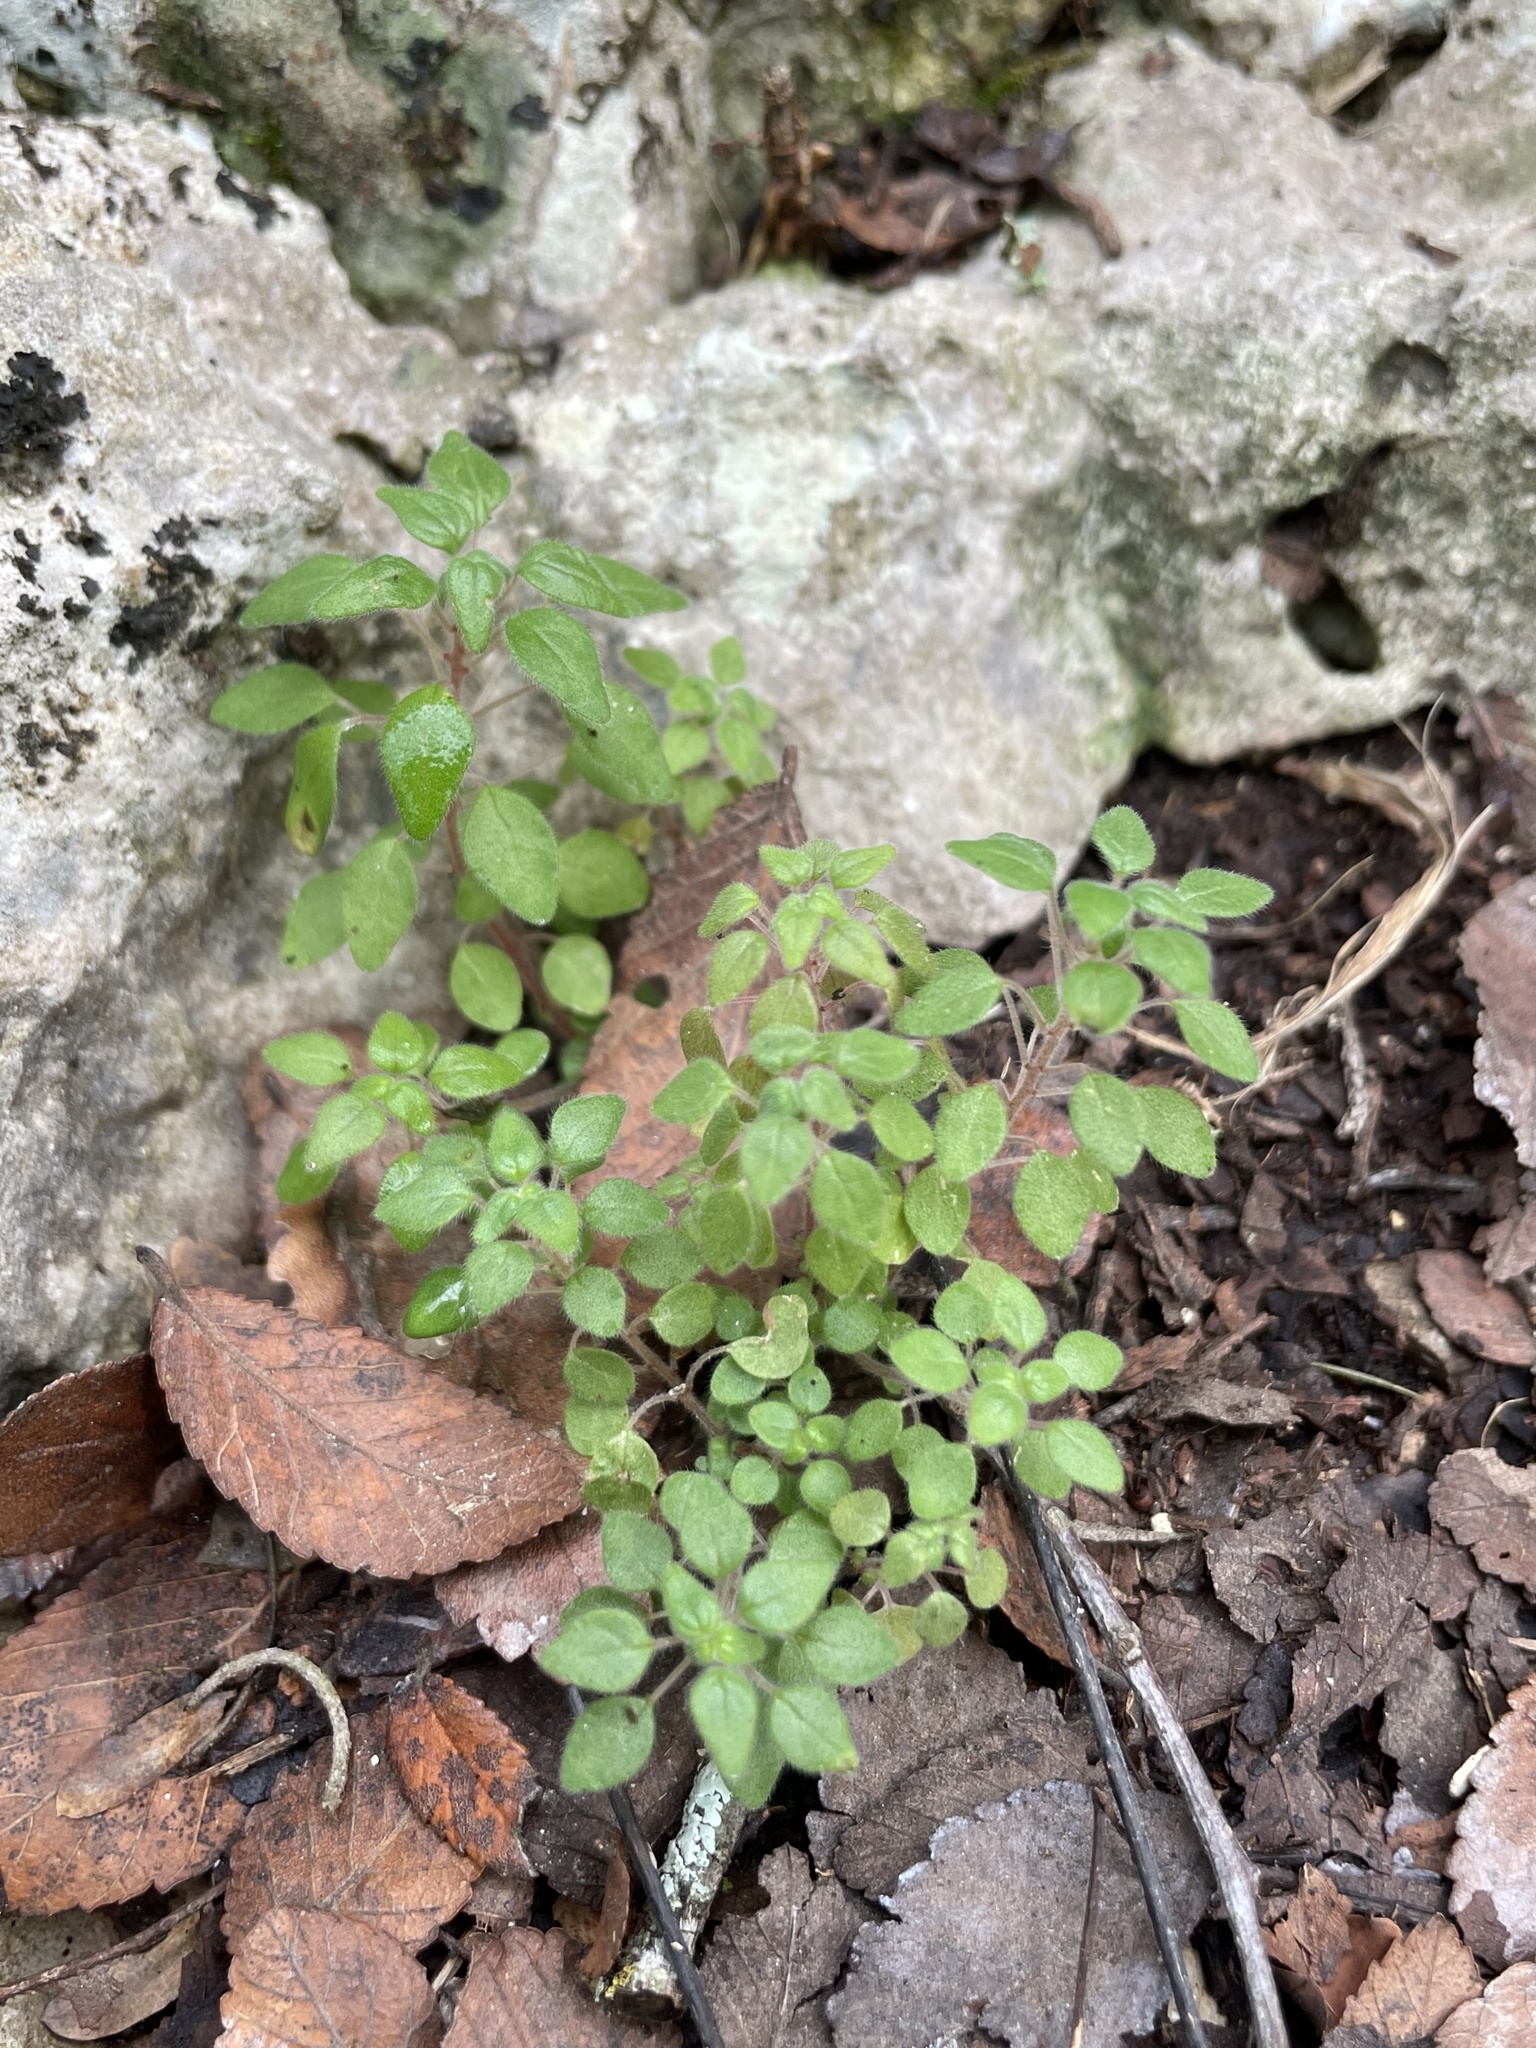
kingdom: Plantae
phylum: Tracheophyta
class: Magnoliopsida
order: Rosales
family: Urticaceae
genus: Parietaria
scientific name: Parietaria pensylvanica
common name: Pennsylvania pellitory
